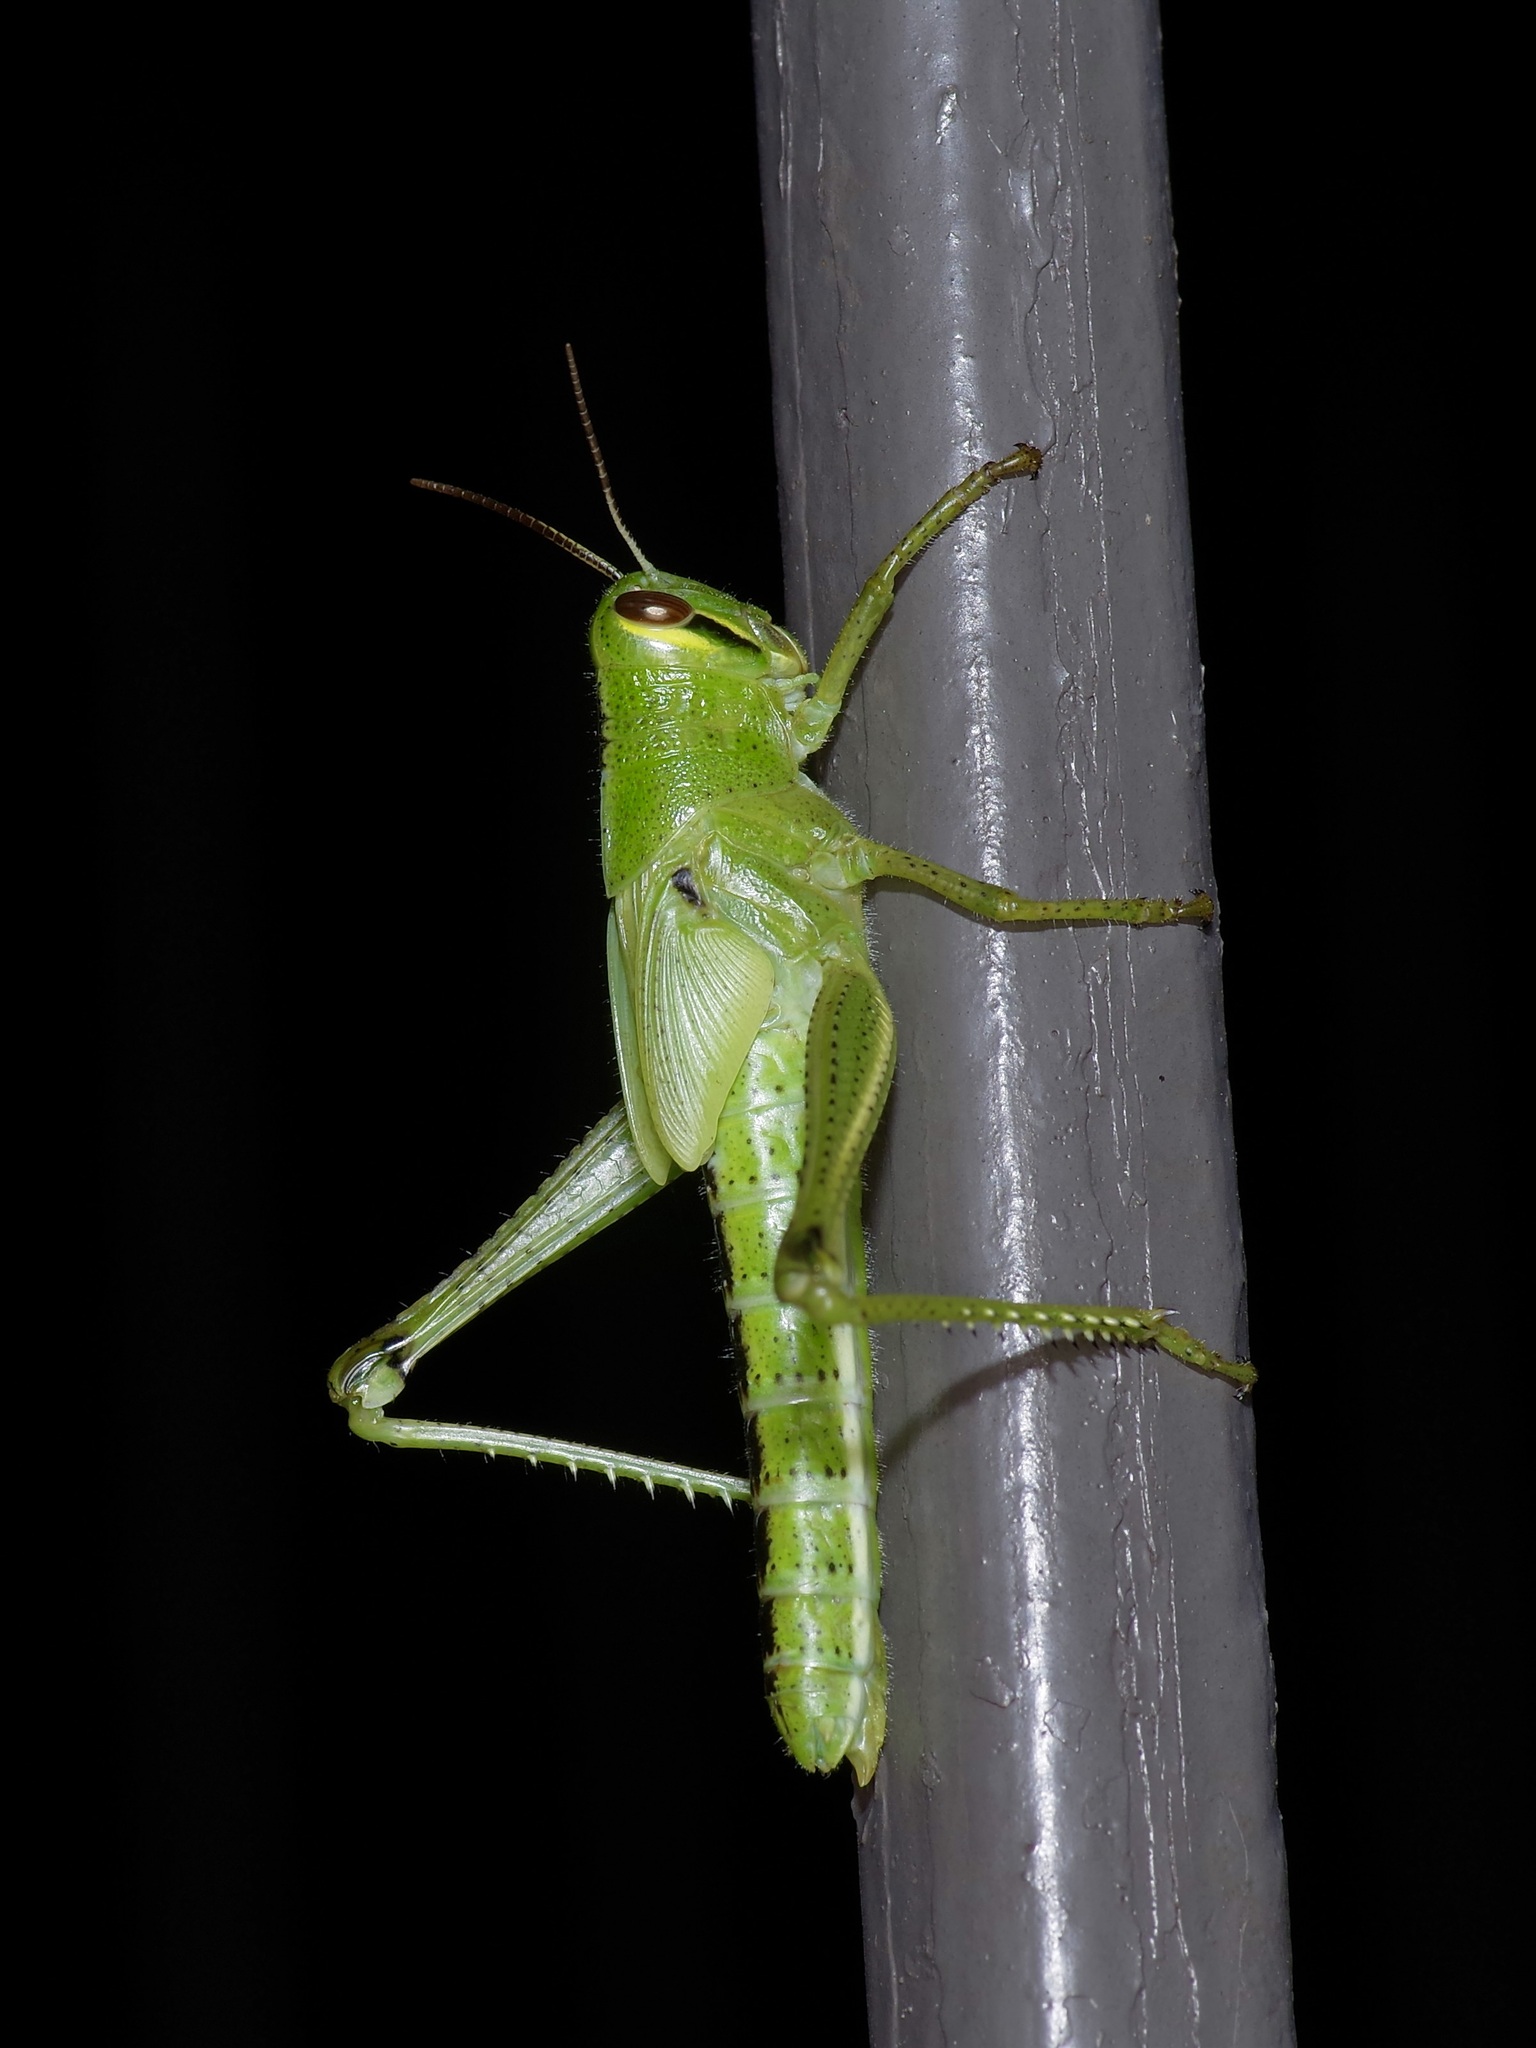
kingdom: Animalia
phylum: Arthropoda
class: Insecta
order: Orthoptera
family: Acrididae
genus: Schistocerca
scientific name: Schistocerca americana
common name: American bird locust
